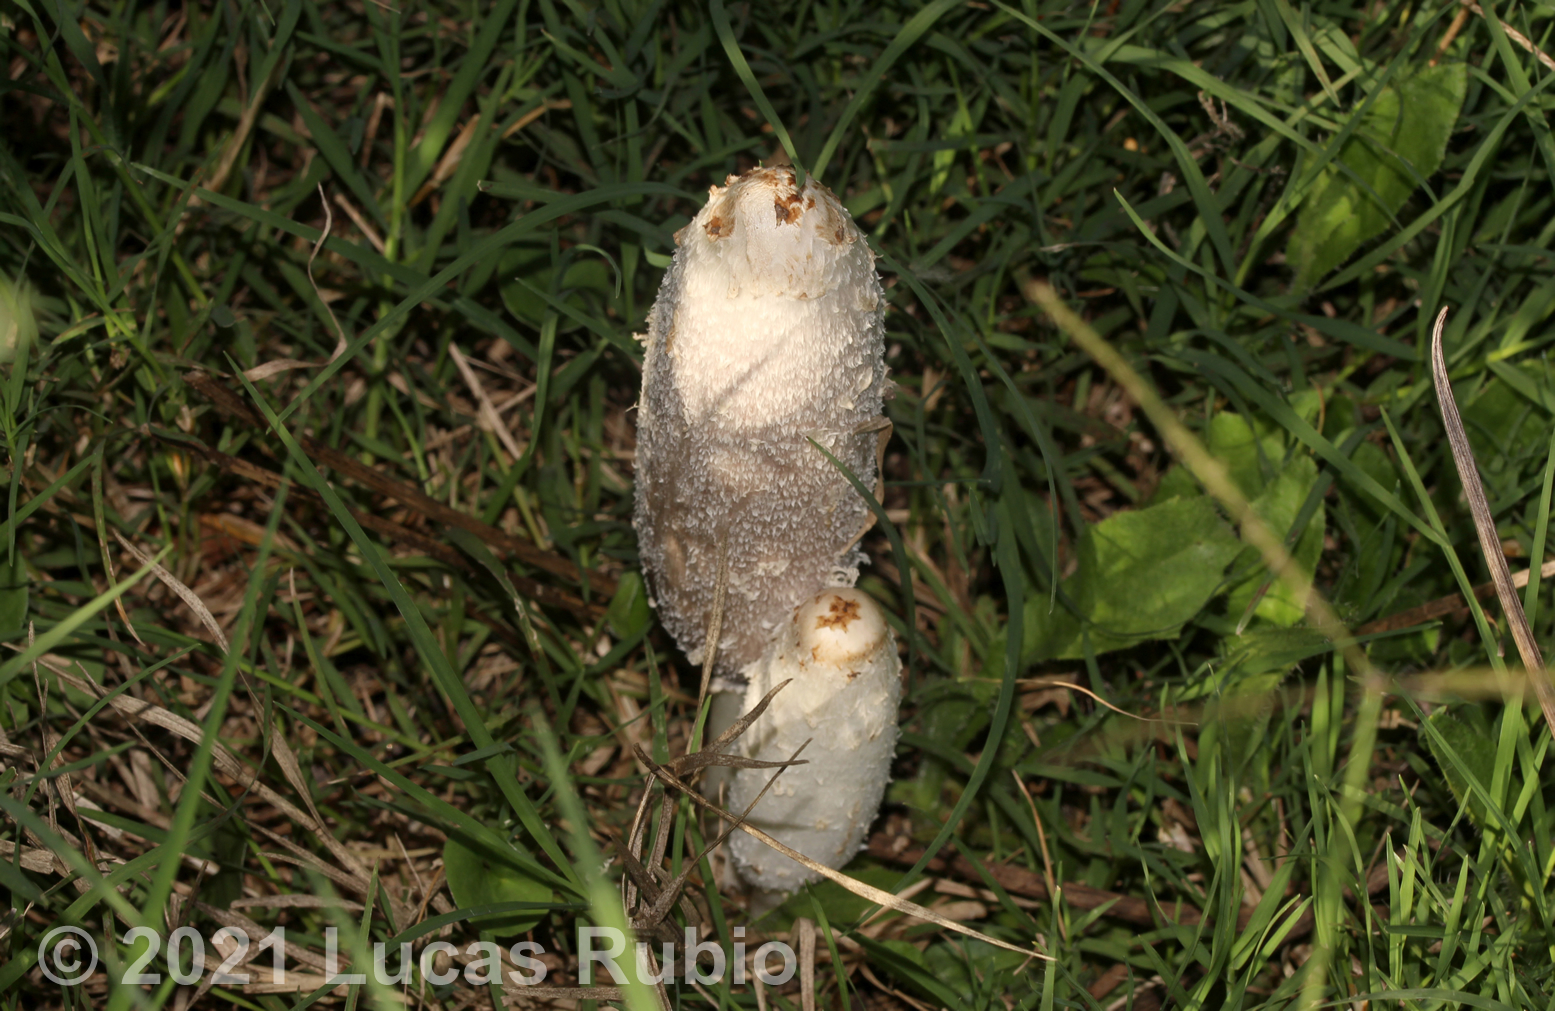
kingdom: Fungi
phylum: Basidiomycota
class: Agaricomycetes
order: Agaricales
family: Agaricaceae
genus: Coprinus
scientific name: Coprinus comatus
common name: Lawyer's wig
